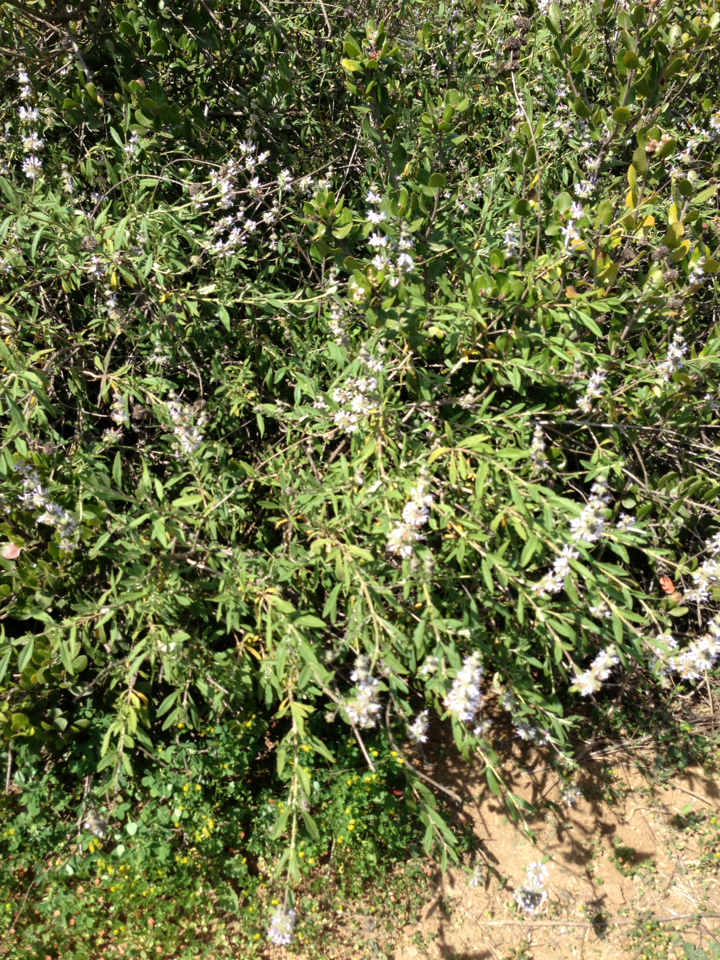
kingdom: Plantae
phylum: Tracheophyta
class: Magnoliopsida
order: Lamiales
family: Lamiaceae
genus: Salvia
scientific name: Salvia mellifera
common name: Black sage
